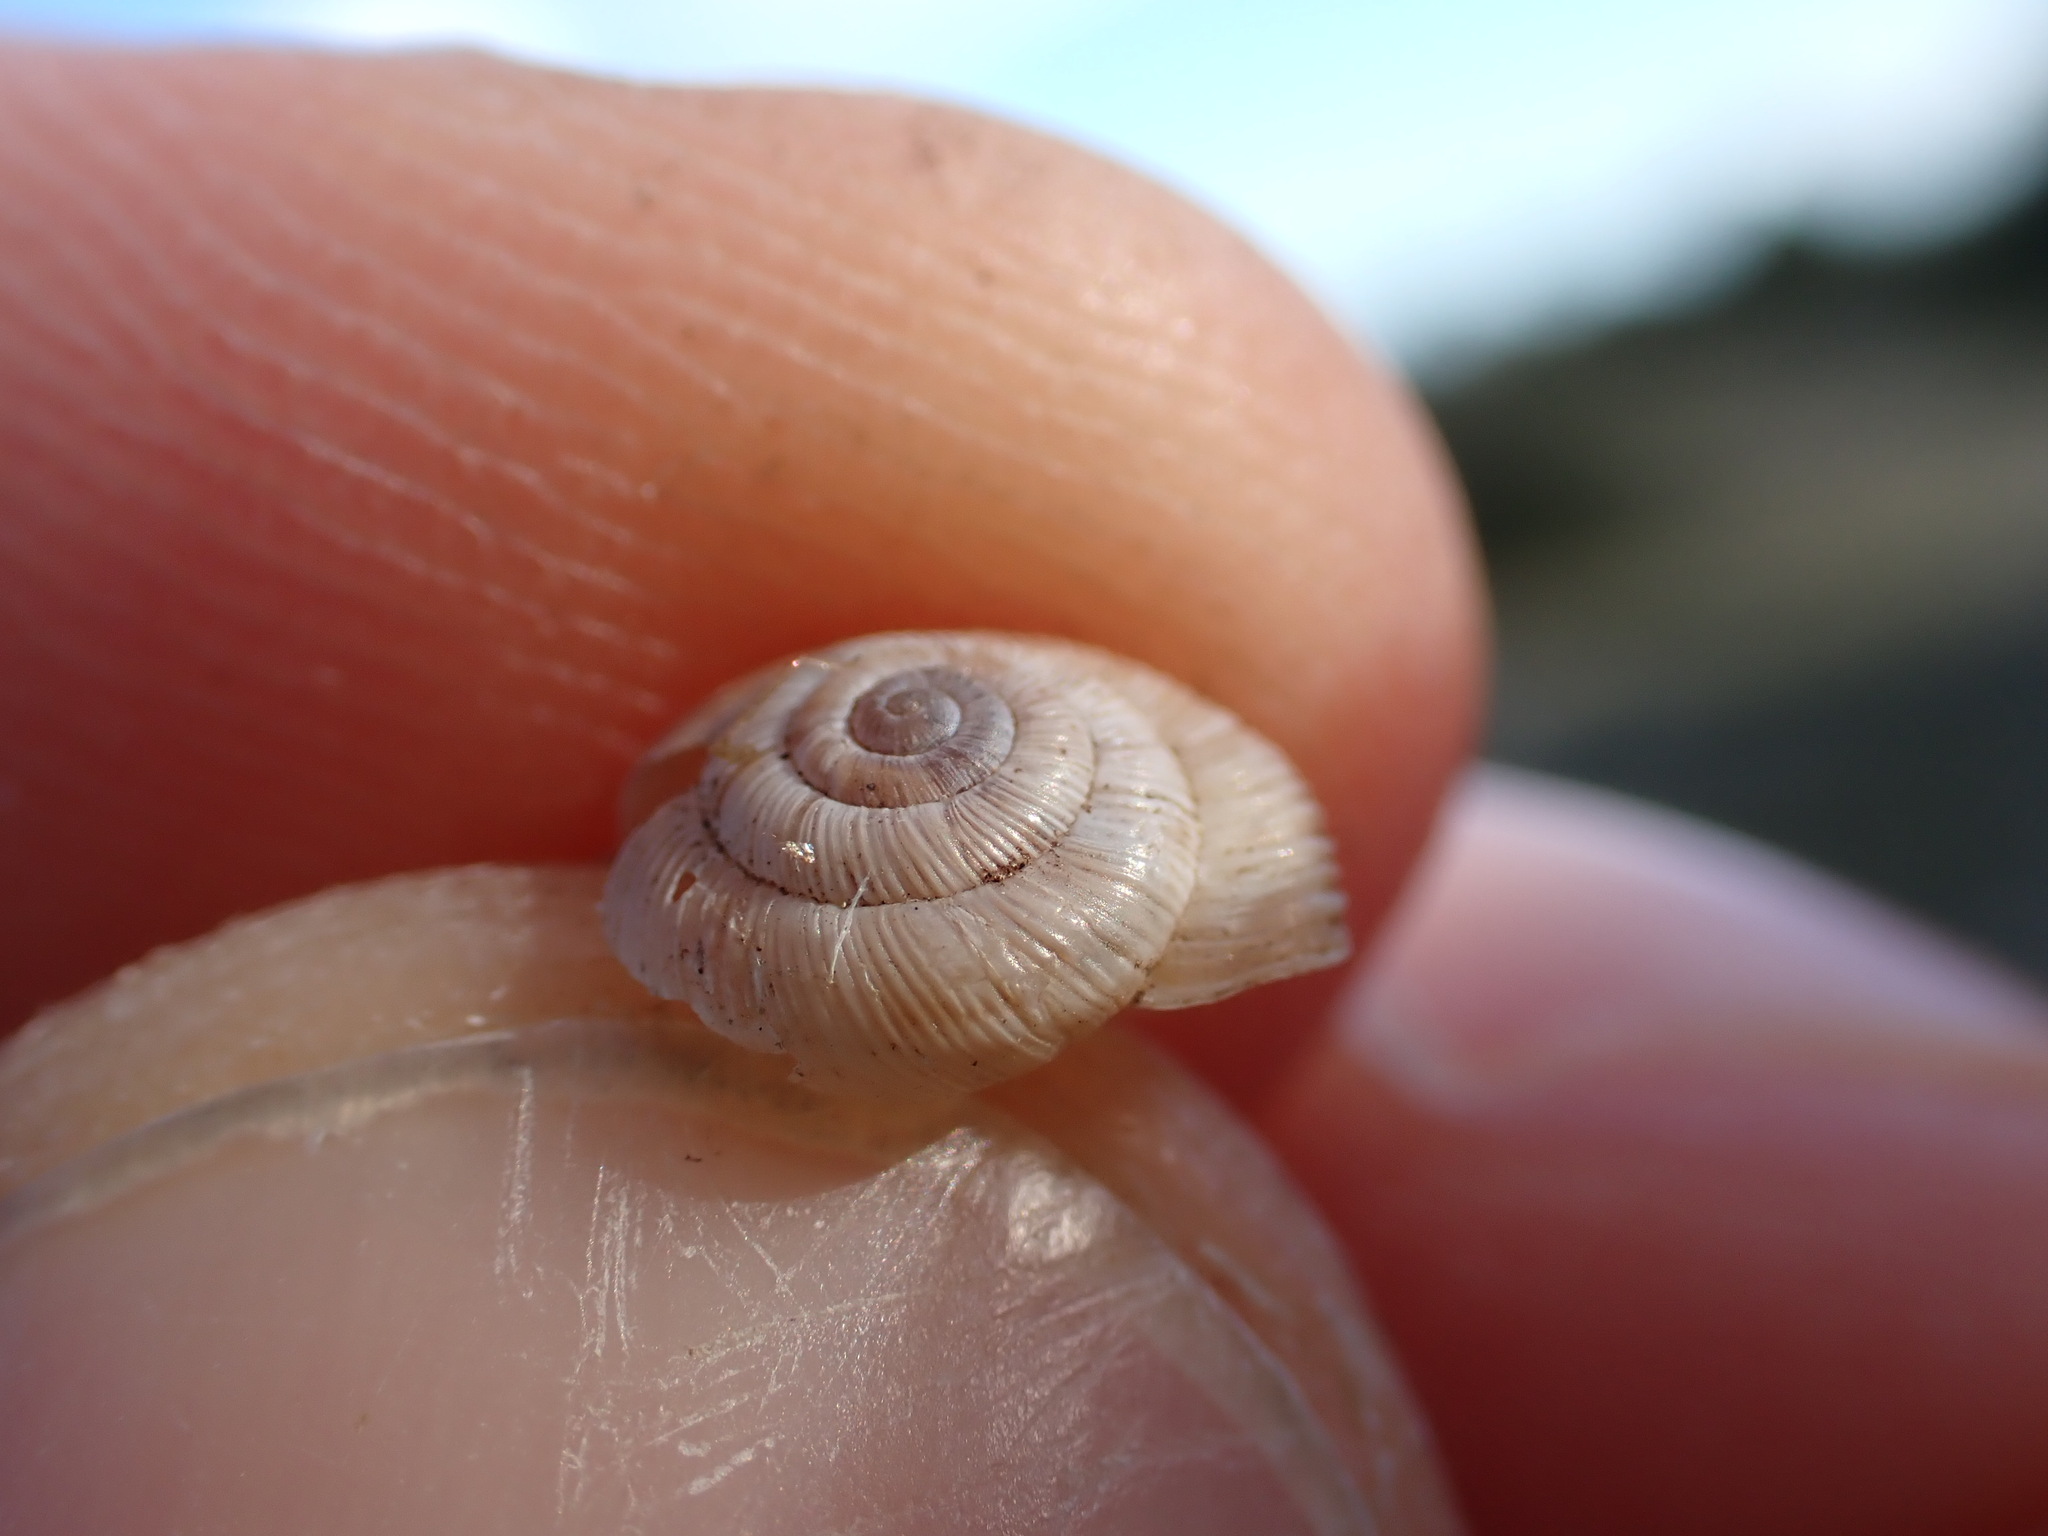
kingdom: Animalia
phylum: Mollusca
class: Gastropoda
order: Stylommatophora
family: Geomitridae
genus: Candidula
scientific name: Candidula rugosiuscula
